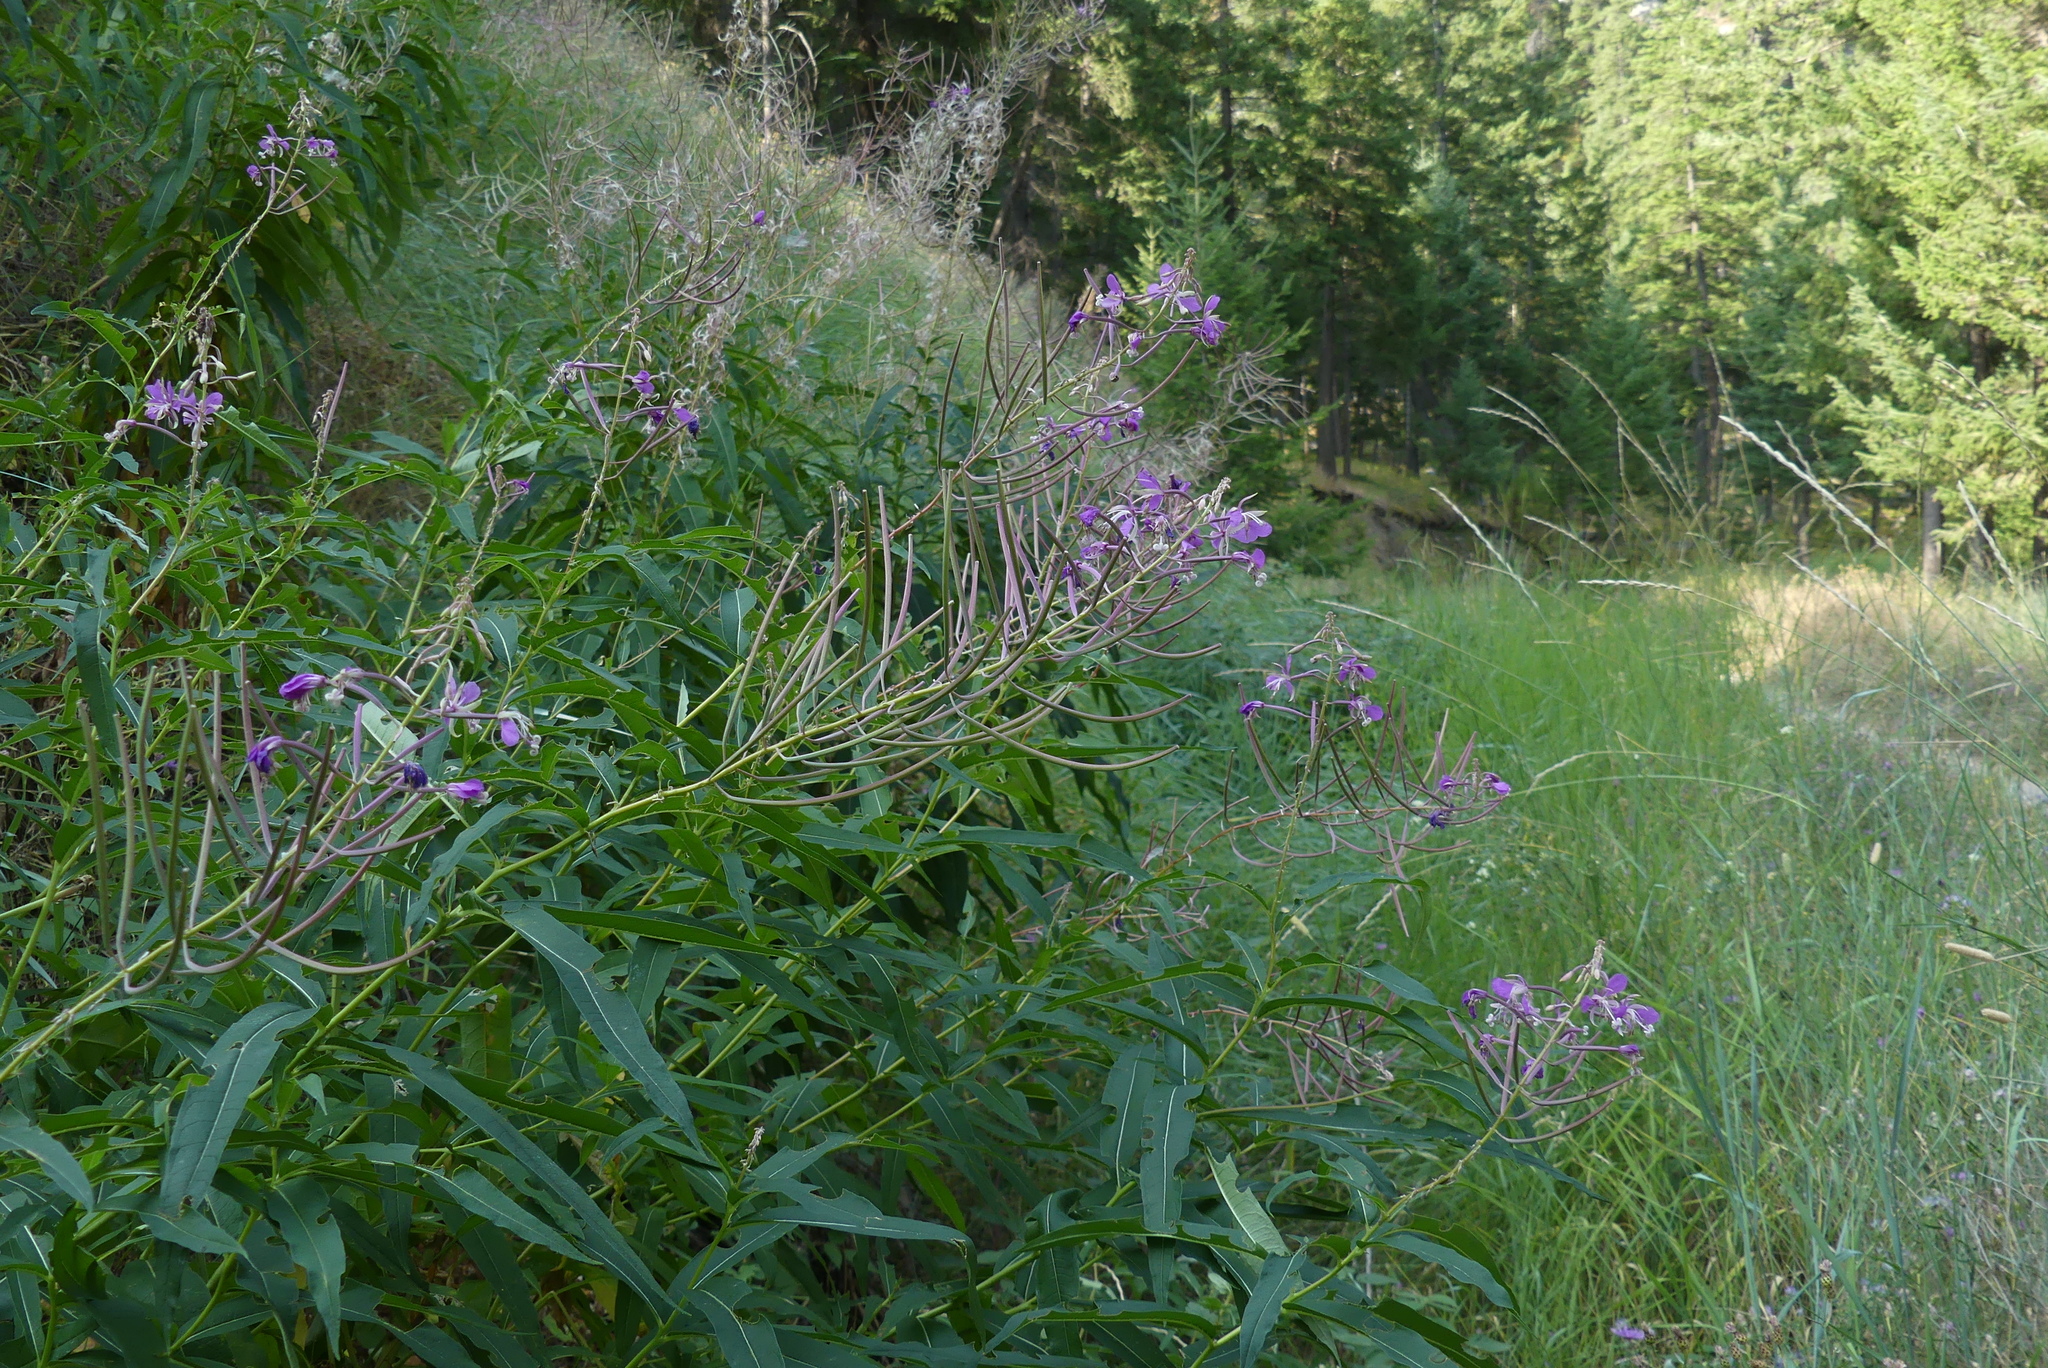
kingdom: Plantae
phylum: Tracheophyta
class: Magnoliopsida
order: Myrtales
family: Onagraceae
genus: Chamaenerion
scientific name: Chamaenerion angustifolium
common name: Fireweed
